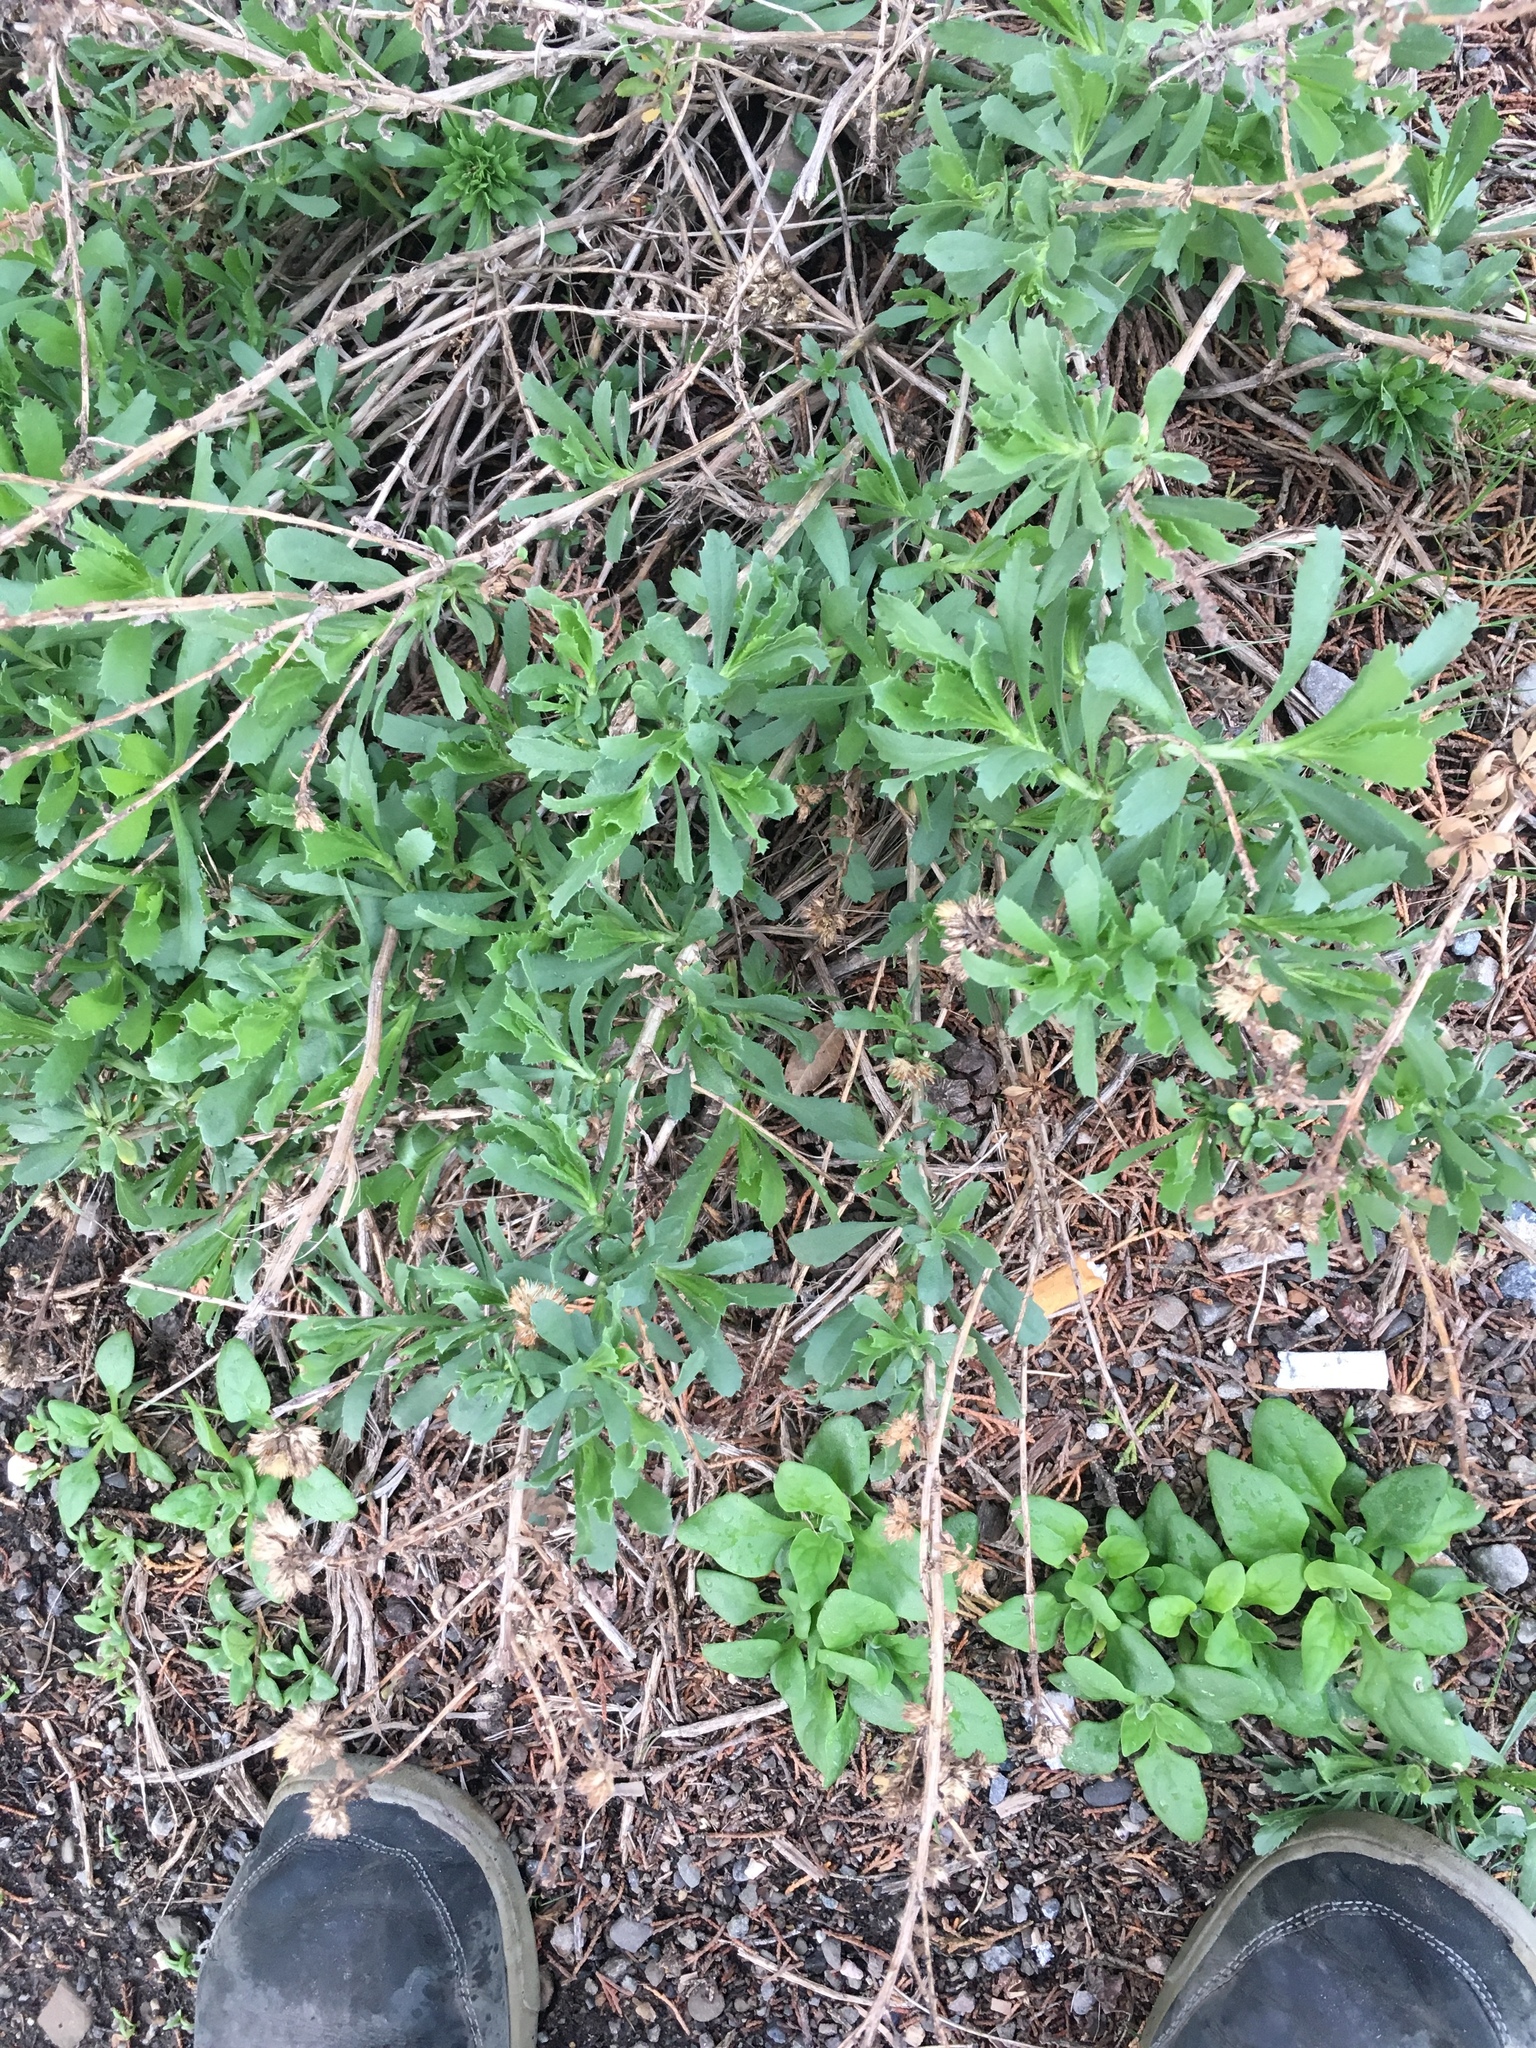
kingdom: Plantae
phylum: Tracheophyta
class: Magnoliopsida
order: Asterales
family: Asteraceae
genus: Isocoma
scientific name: Isocoma menziesii
